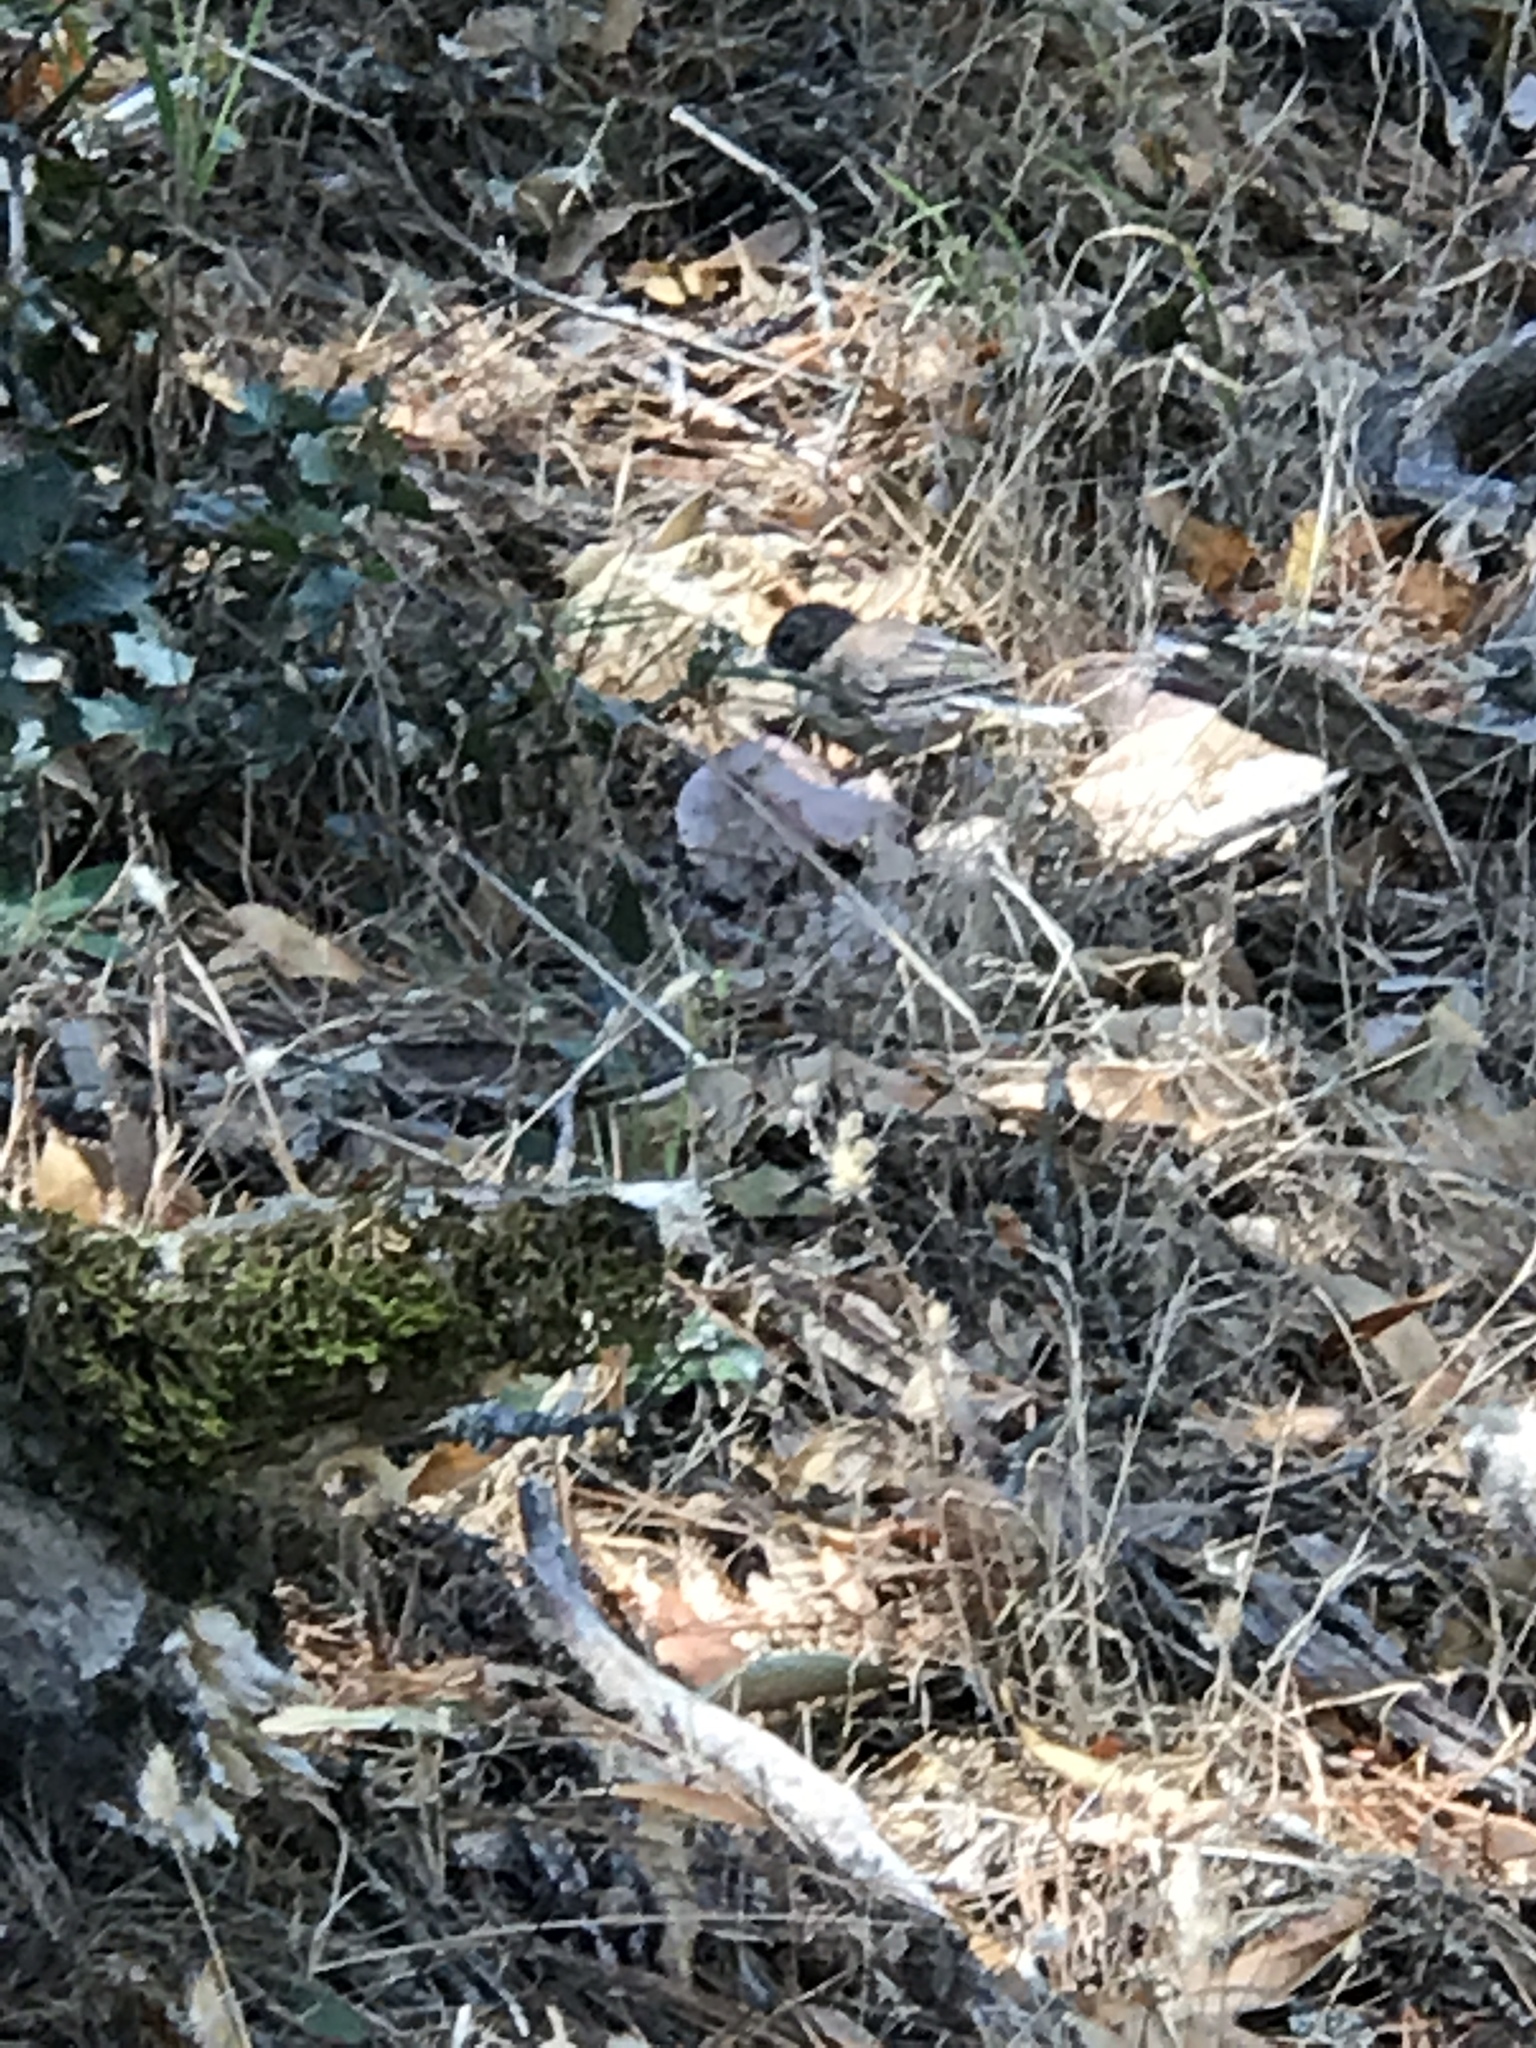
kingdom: Animalia
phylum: Chordata
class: Aves
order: Passeriformes
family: Passerellidae
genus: Junco
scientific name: Junco hyemalis
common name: Dark-eyed junco
